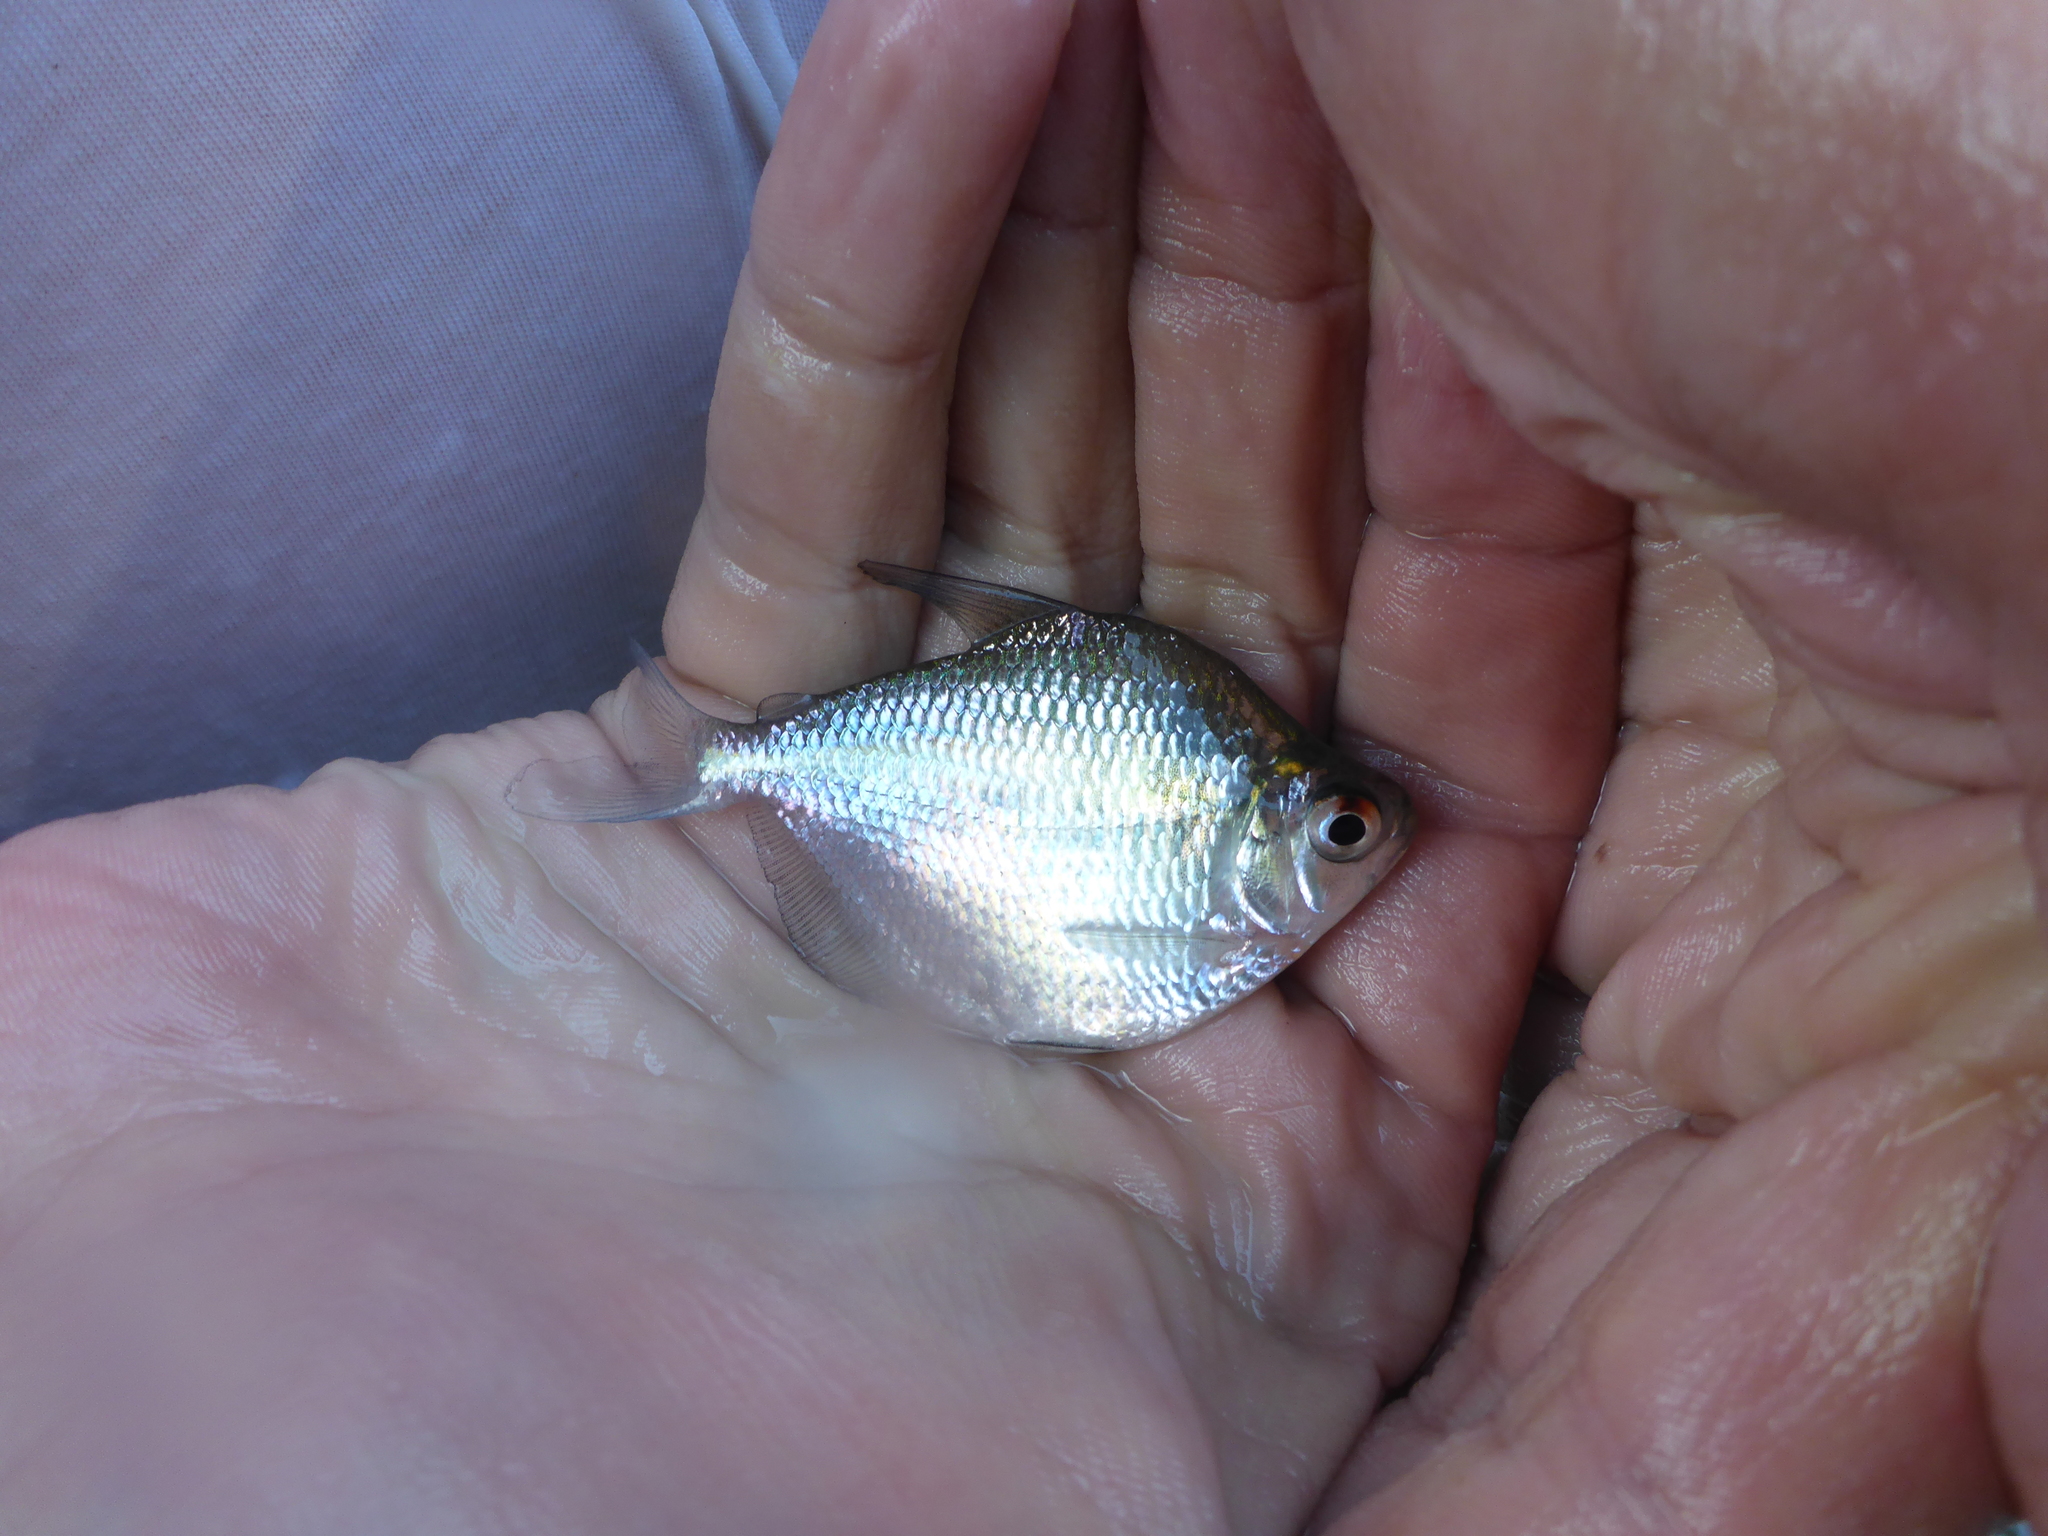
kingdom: Animalia
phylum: Chordata
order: Characiformes
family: Characidae
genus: Ctenobrycon
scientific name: Ctenobrycon hauxwellianus
